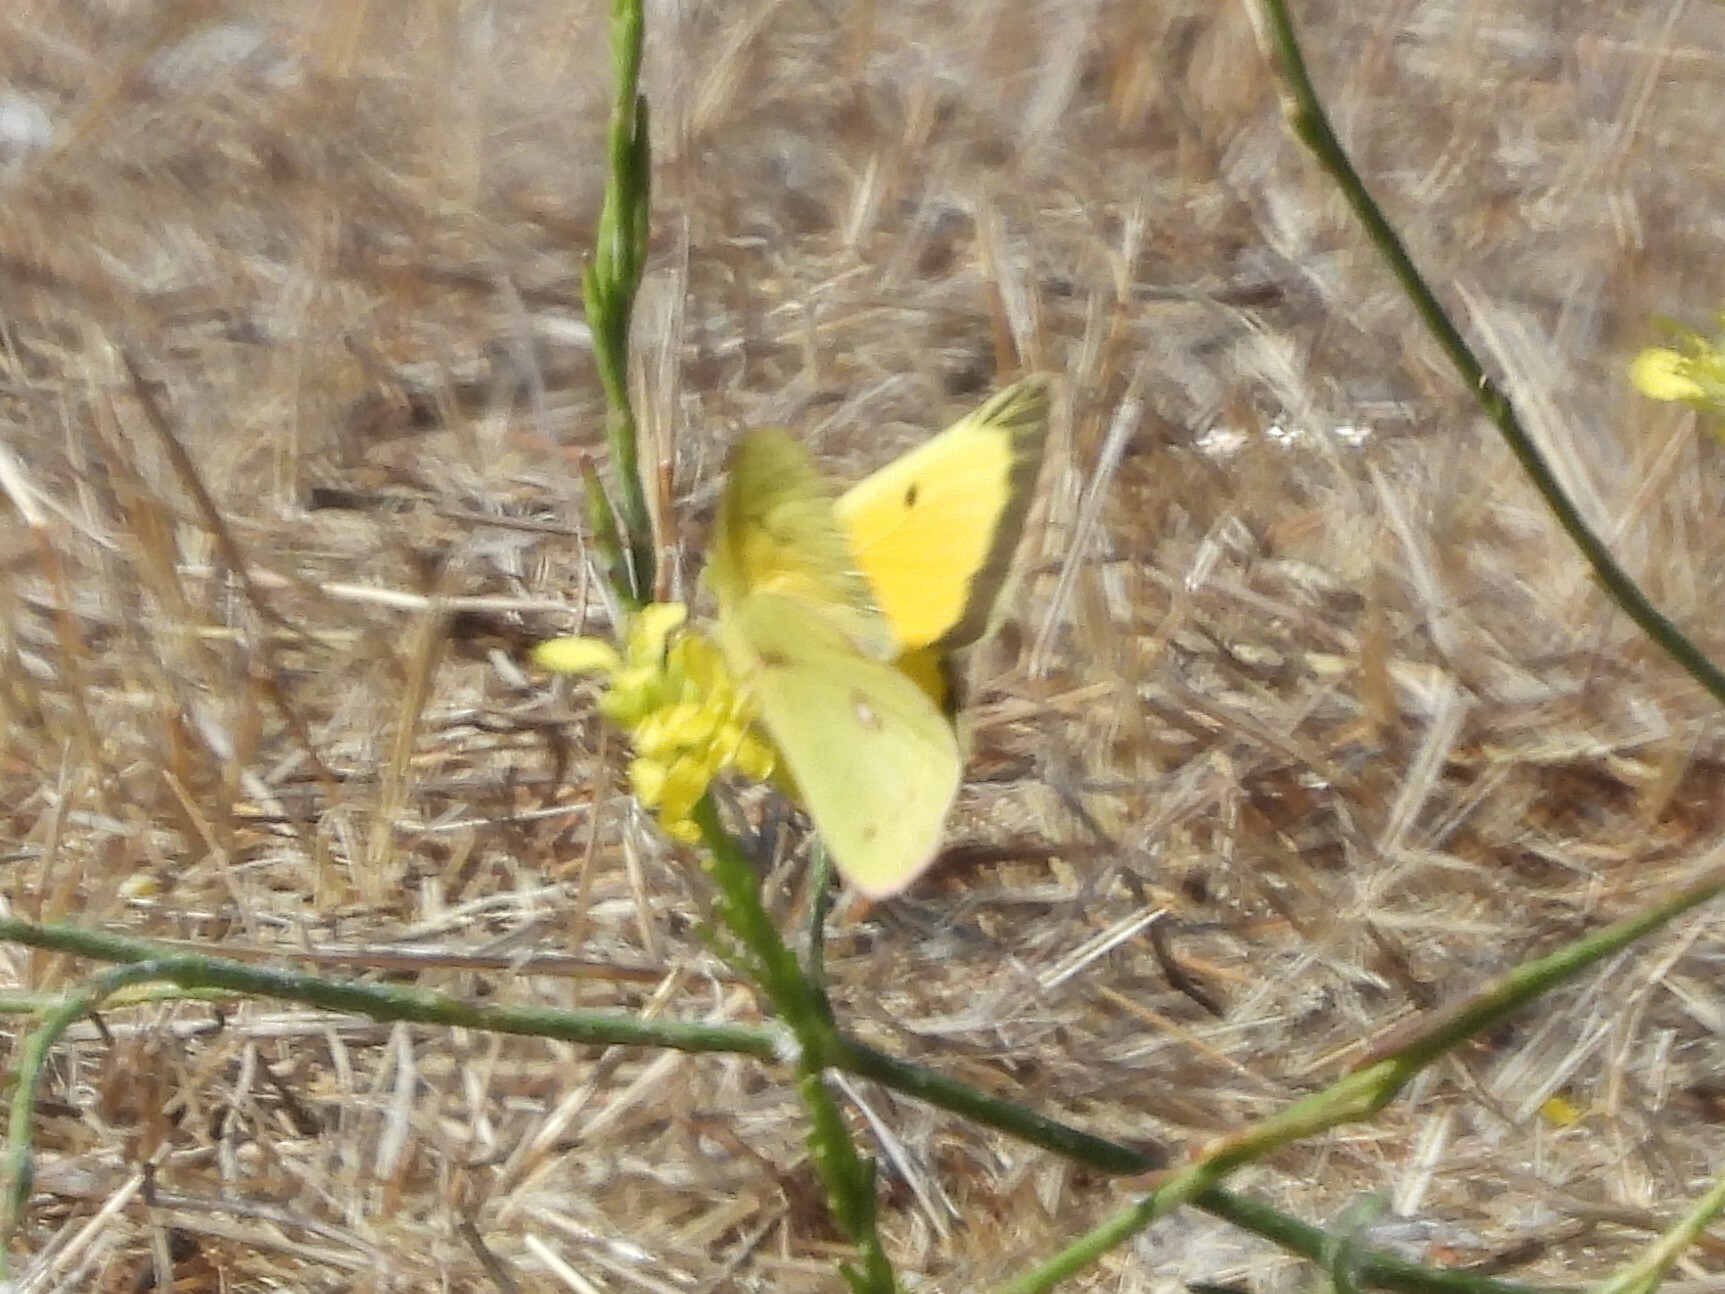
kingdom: Animalia
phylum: Arthropoda
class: Insecta
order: Lepidoptera
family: Pieridae
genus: Colias
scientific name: Colias eurytheme
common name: Alfalfa butterfly
